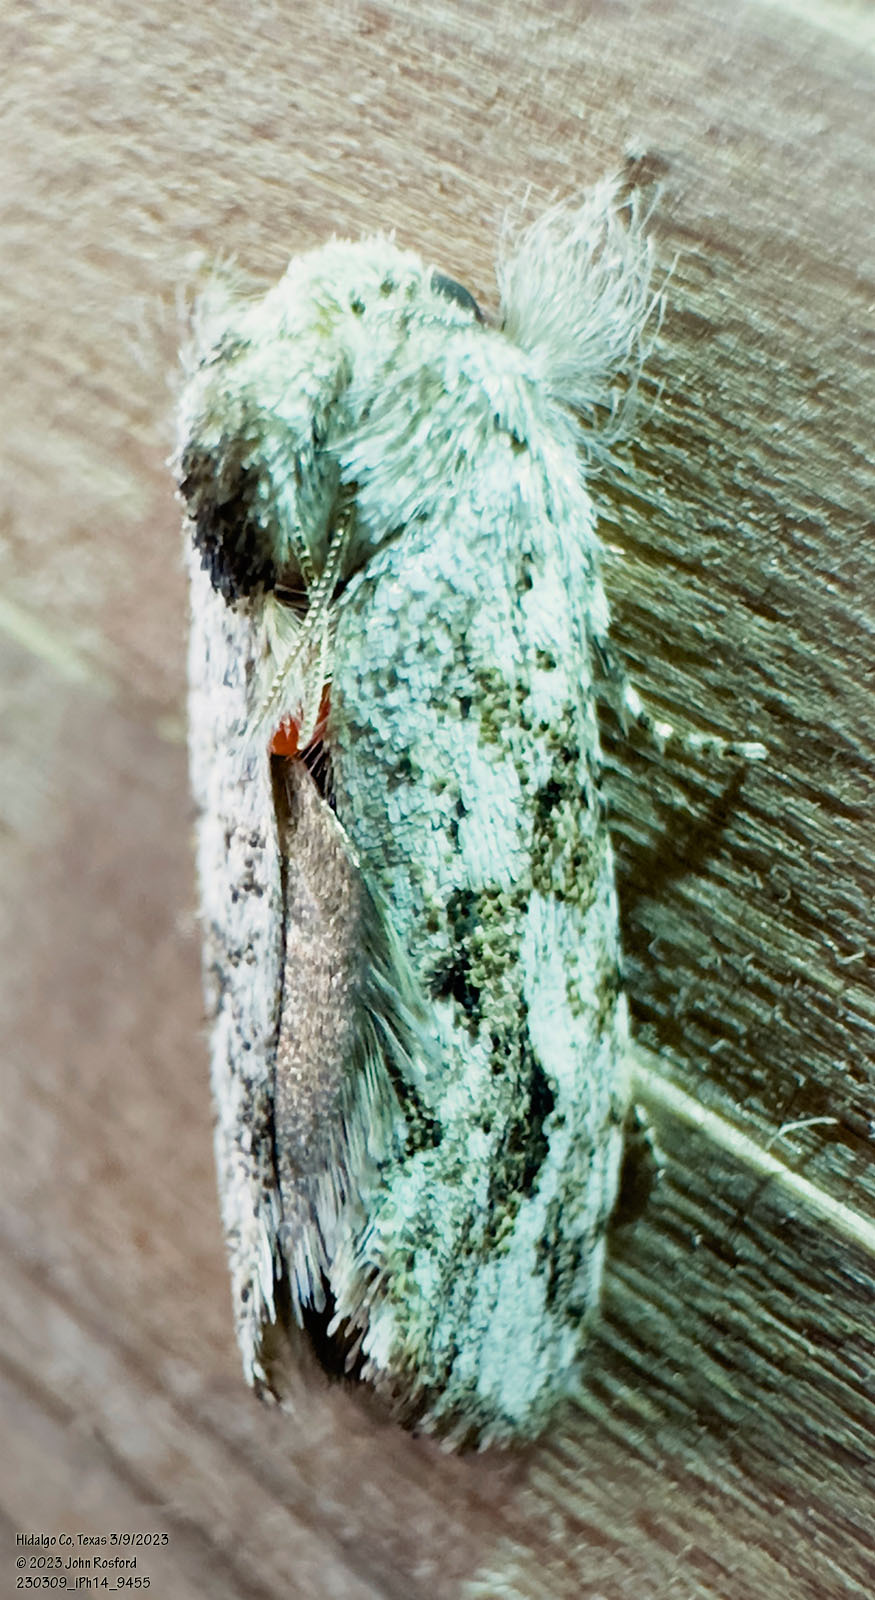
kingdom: Animalia
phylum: Arthropoda
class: Insecta
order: Lepidoptera
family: Tineidae
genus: Acrolophus
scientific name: Acrolophus griseus
